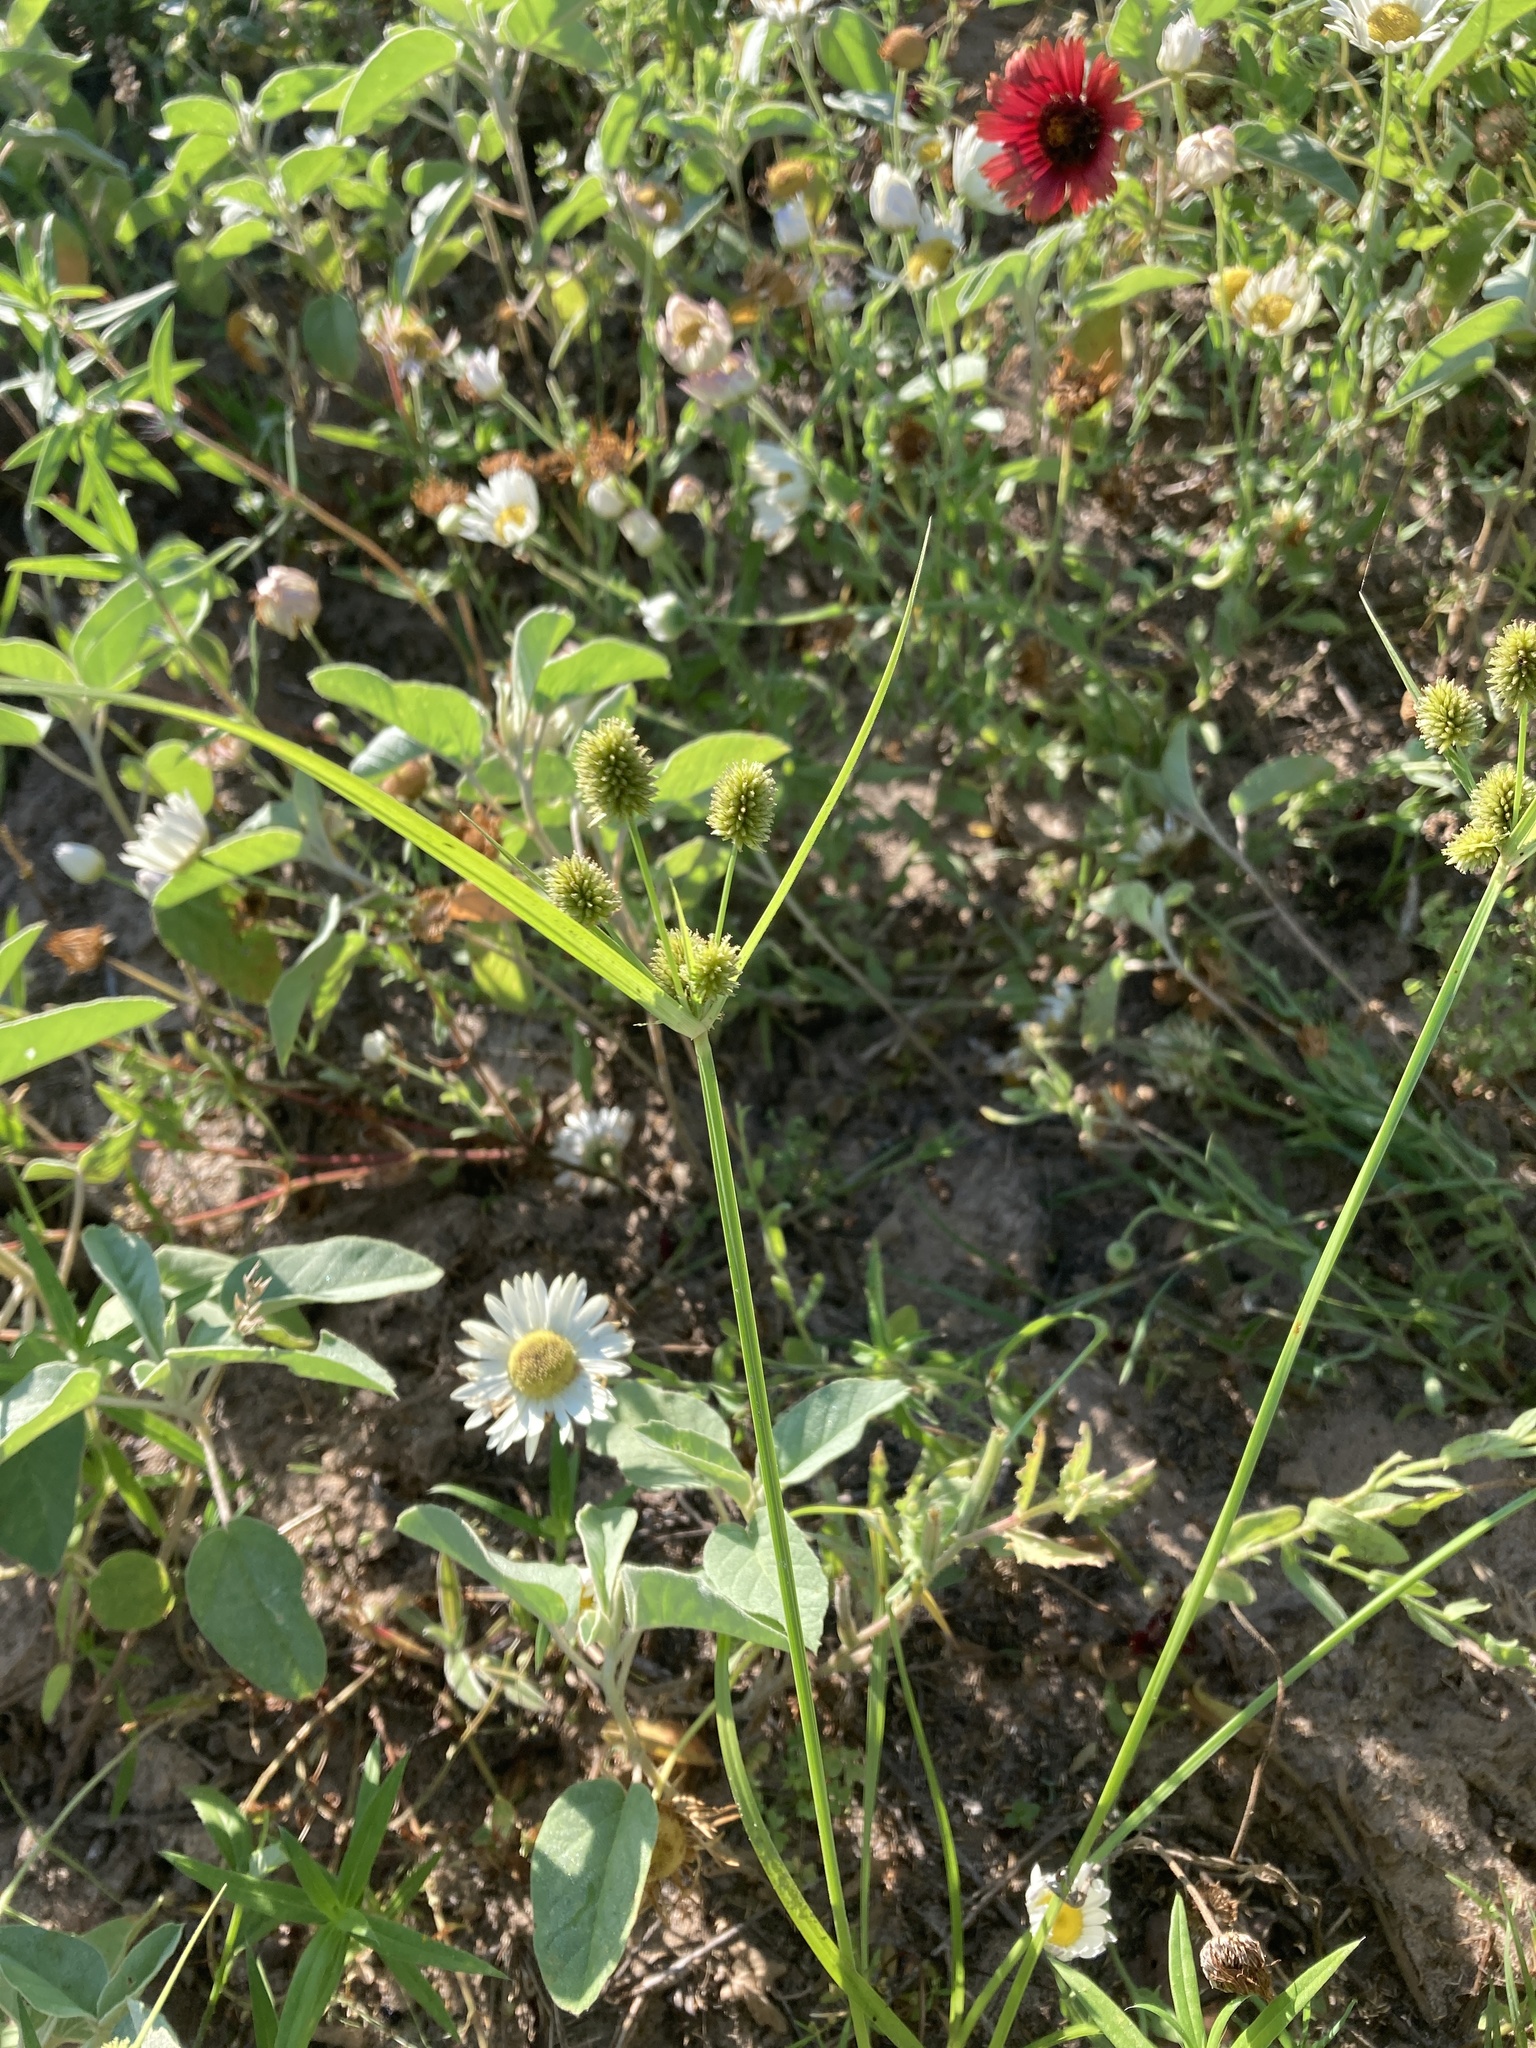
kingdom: Plantae
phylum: Tracheophyta
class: Liliopsida
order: Poales
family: Cyperaceae
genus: Cyperus
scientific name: Cyperus echinatus
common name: Teasel sedge
